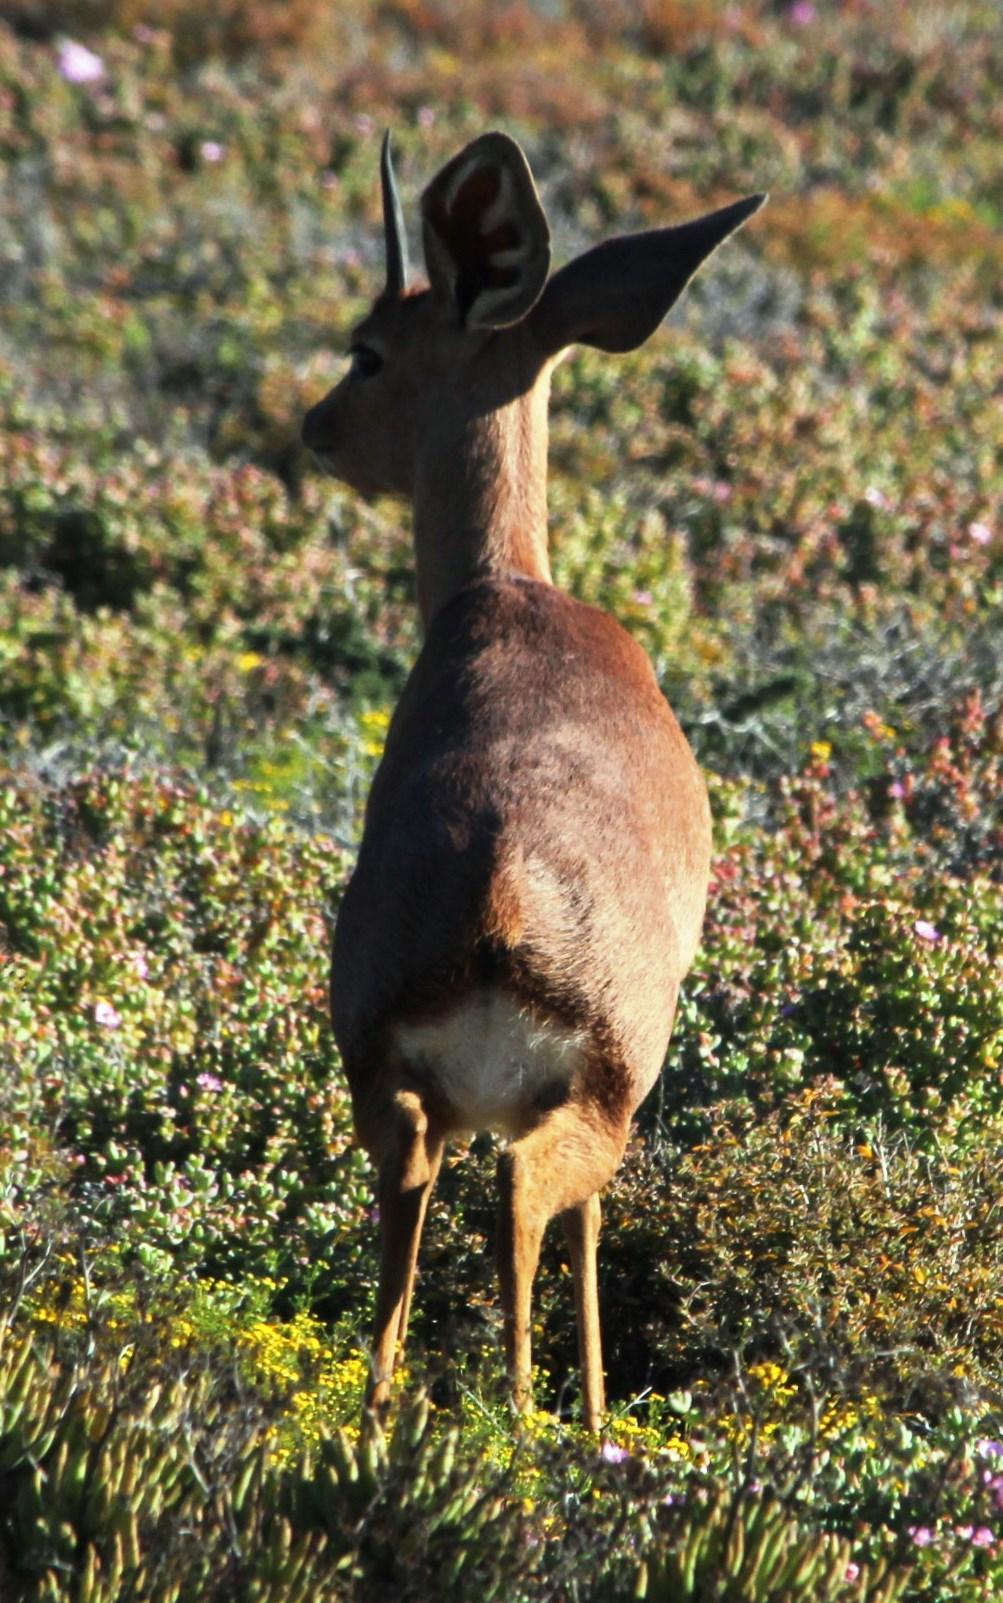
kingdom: Animalia
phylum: Chordata
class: Mammalia
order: Artiodactyla
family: Bovidae
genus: Raphicerus
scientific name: Raphicerus campestris
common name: Steenbok
